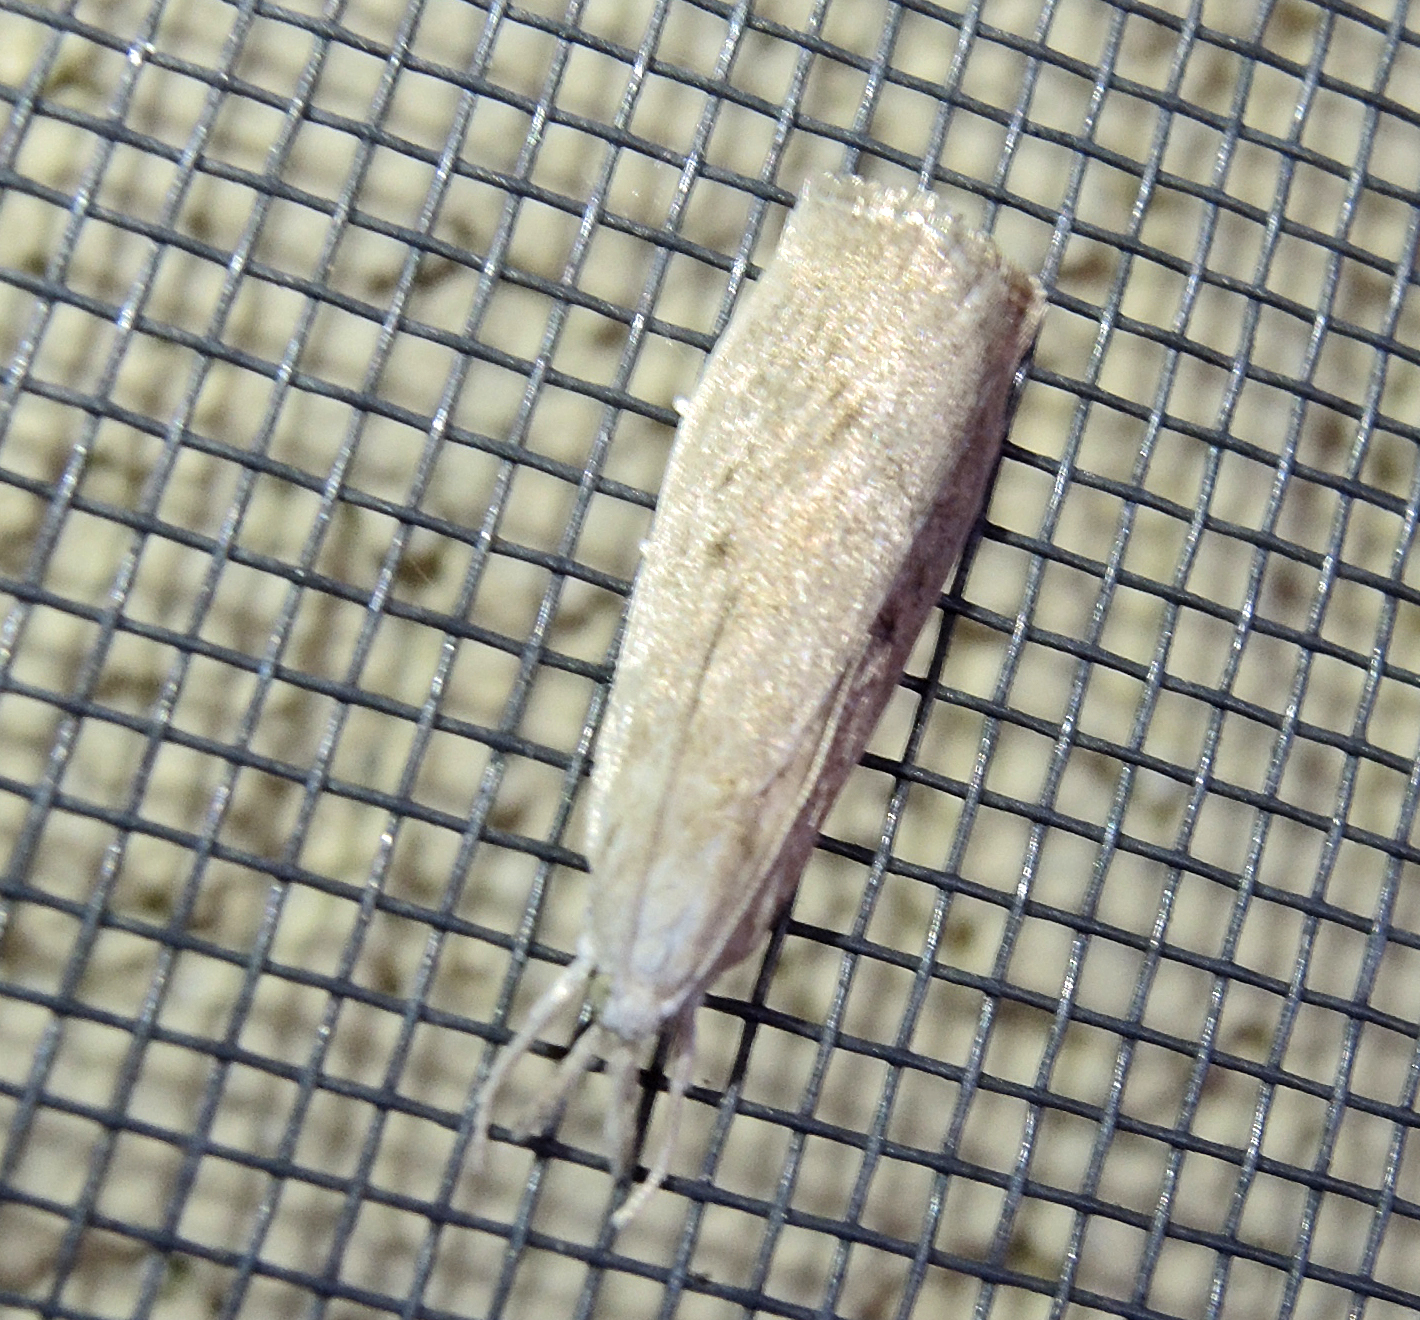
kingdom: Animalia
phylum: Arthropoda
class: Insecta
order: Lepidoptera
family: Crambidae
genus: Calamotropha
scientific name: Calamotropha paludella
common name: Bulrush veneer
